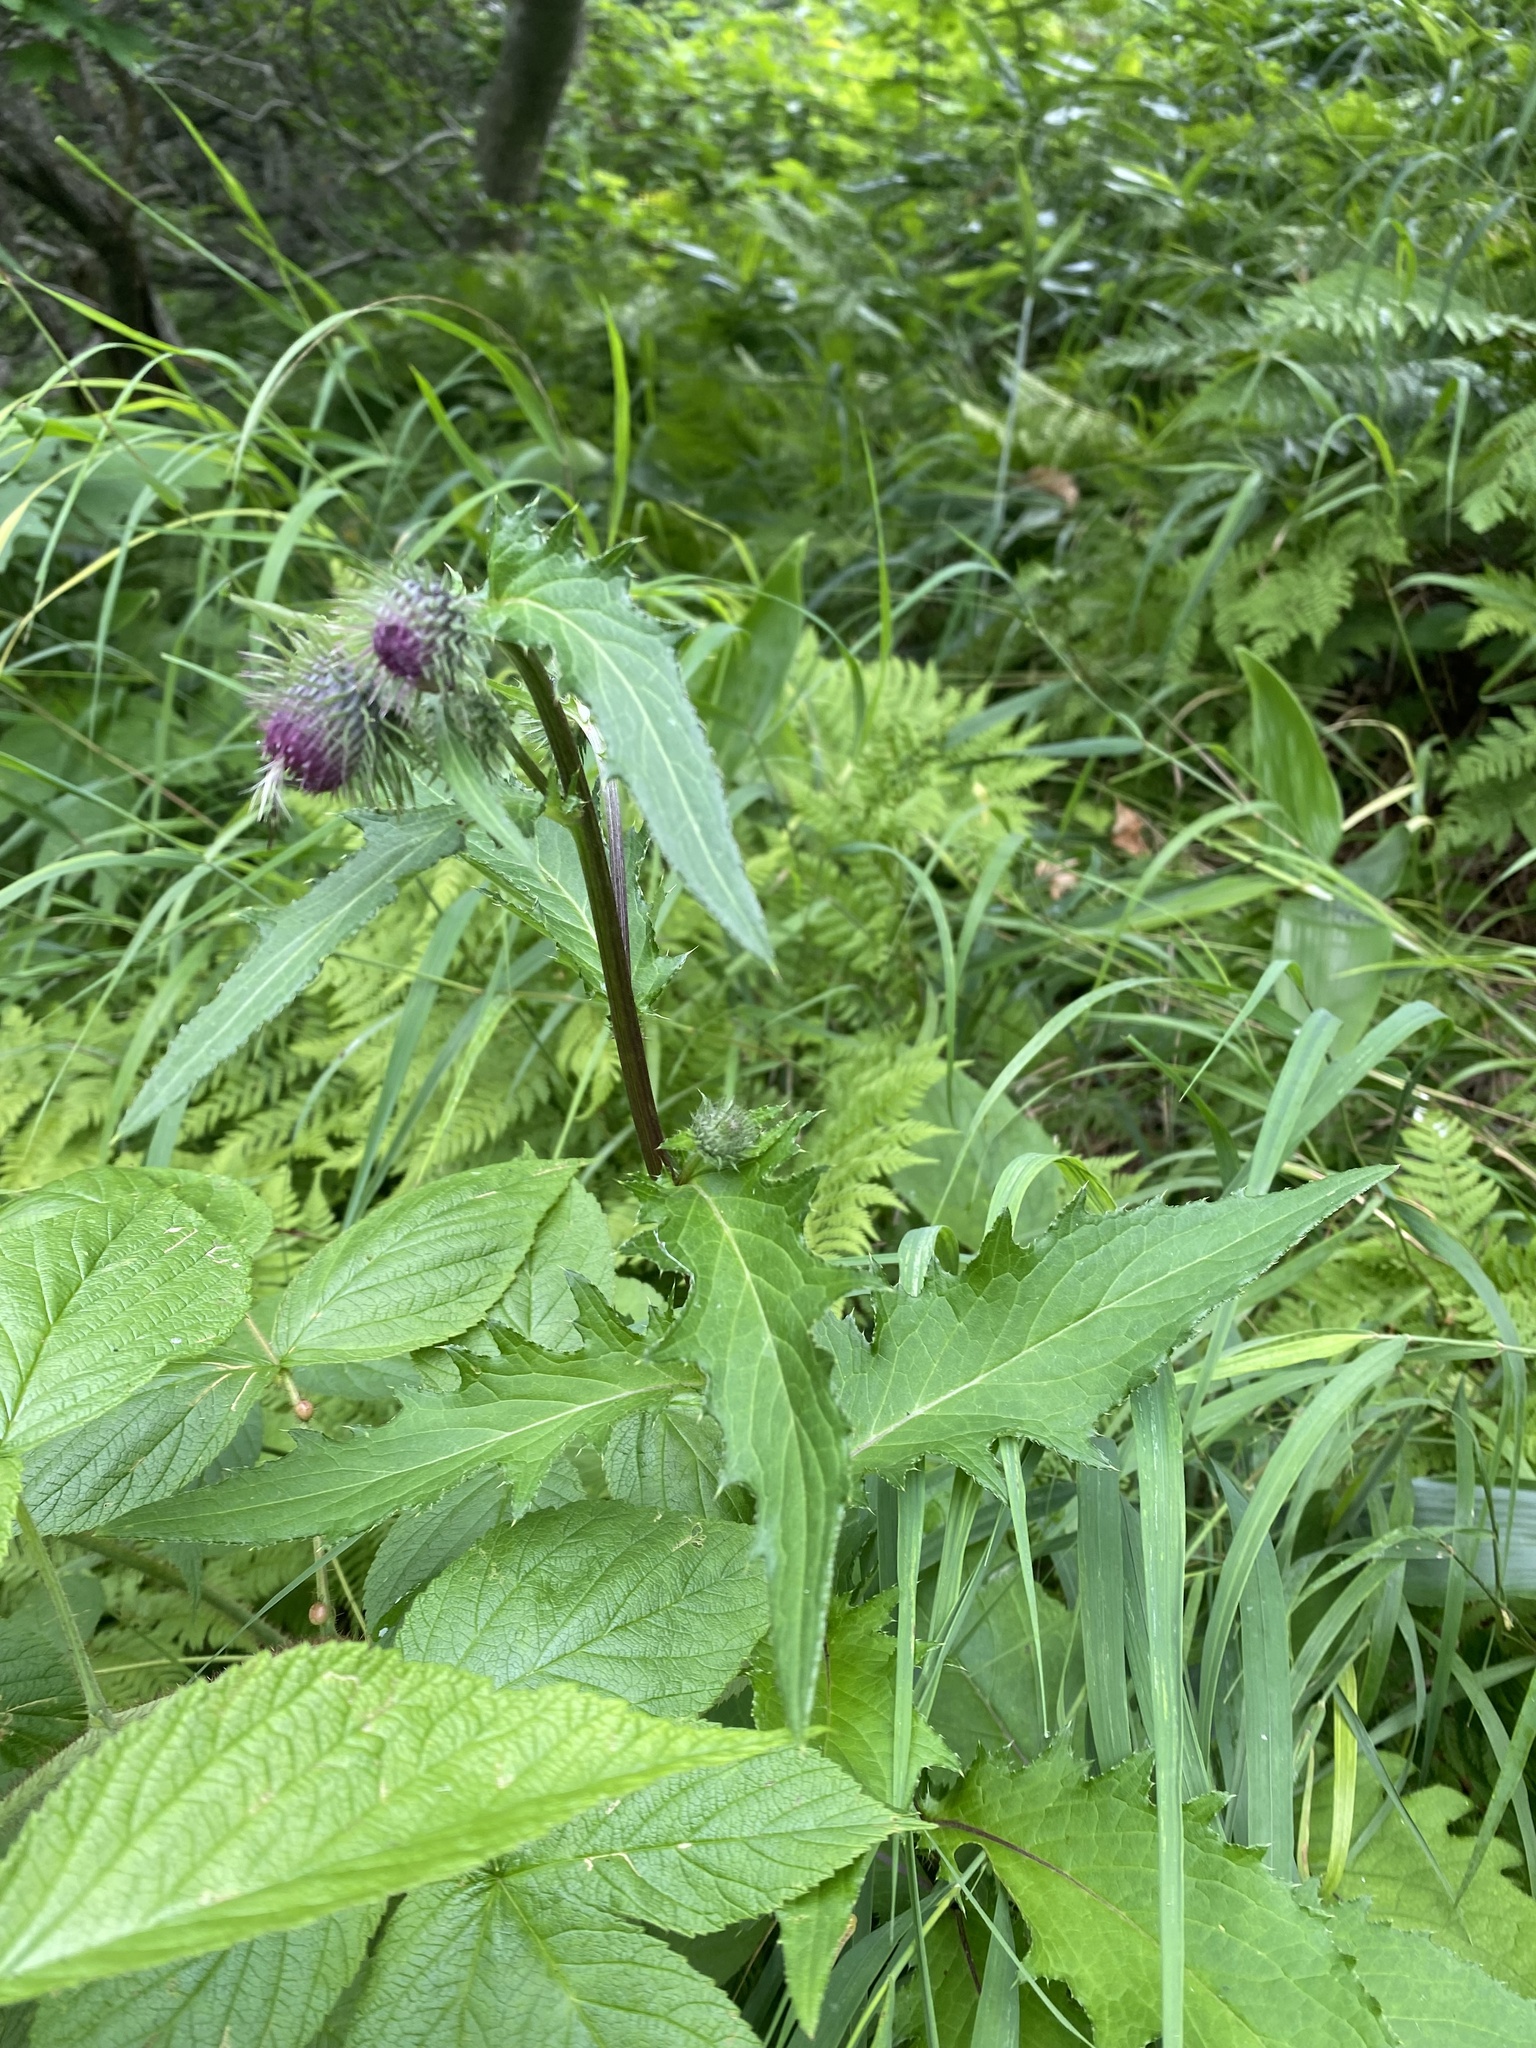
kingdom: Plantae
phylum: Tracheophyta
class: Magnoliopsida
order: Asterales
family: Asteraceae
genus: Cirsium
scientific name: Cirsium kamtschaticum
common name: Kamchatka thistle
